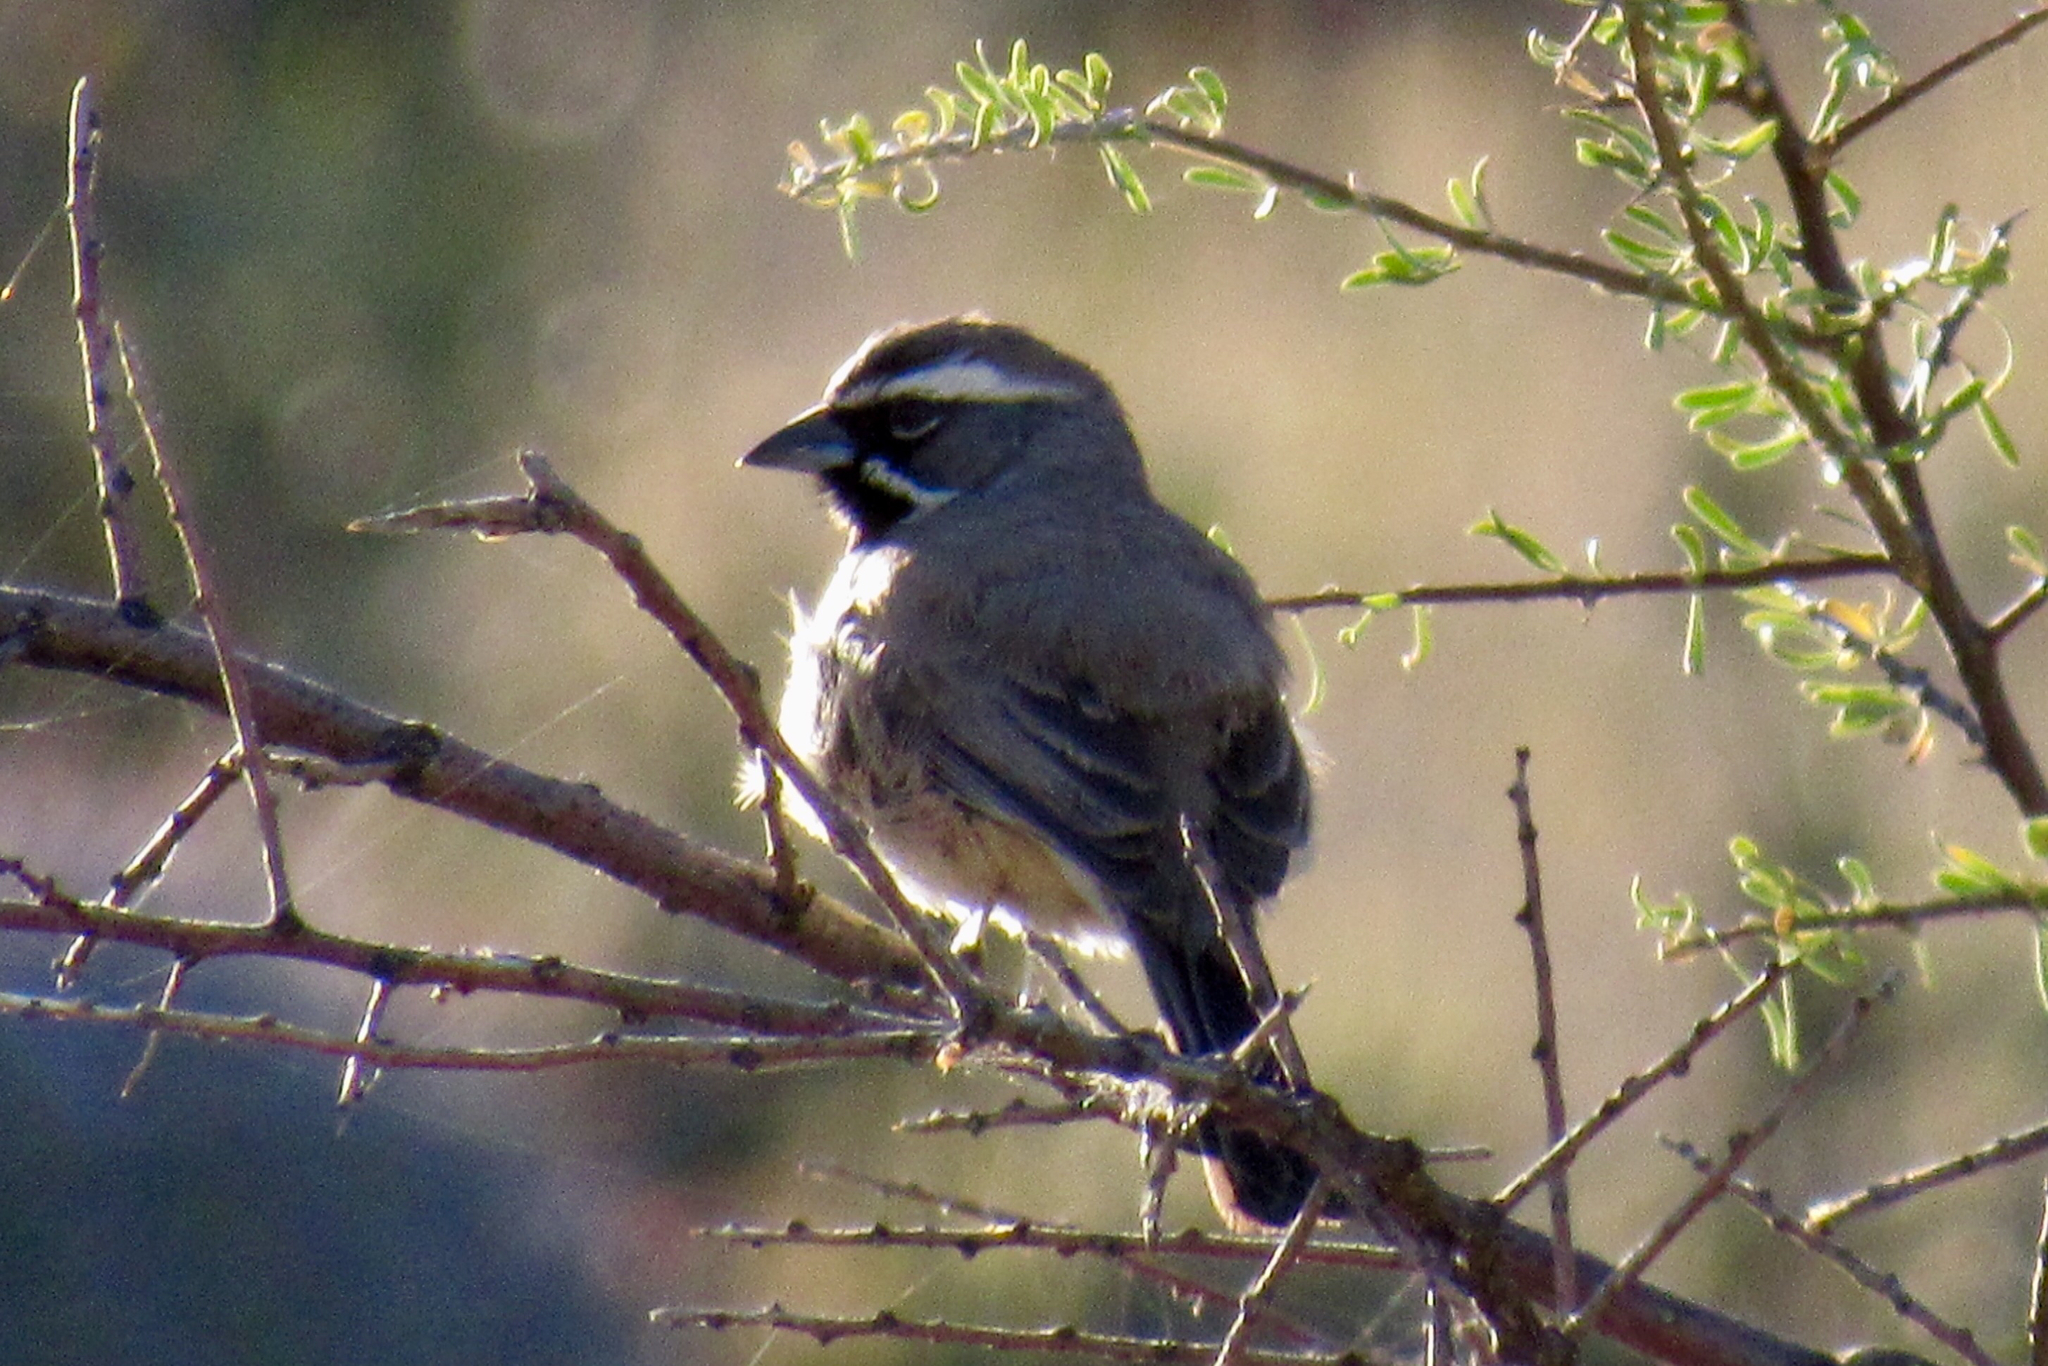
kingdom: Animalia
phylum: Chordata
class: Aves
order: Passeriformes
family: Passerellidae
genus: Amphispiza
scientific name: Amphispiza bilineata
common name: Black-throated sparrow
